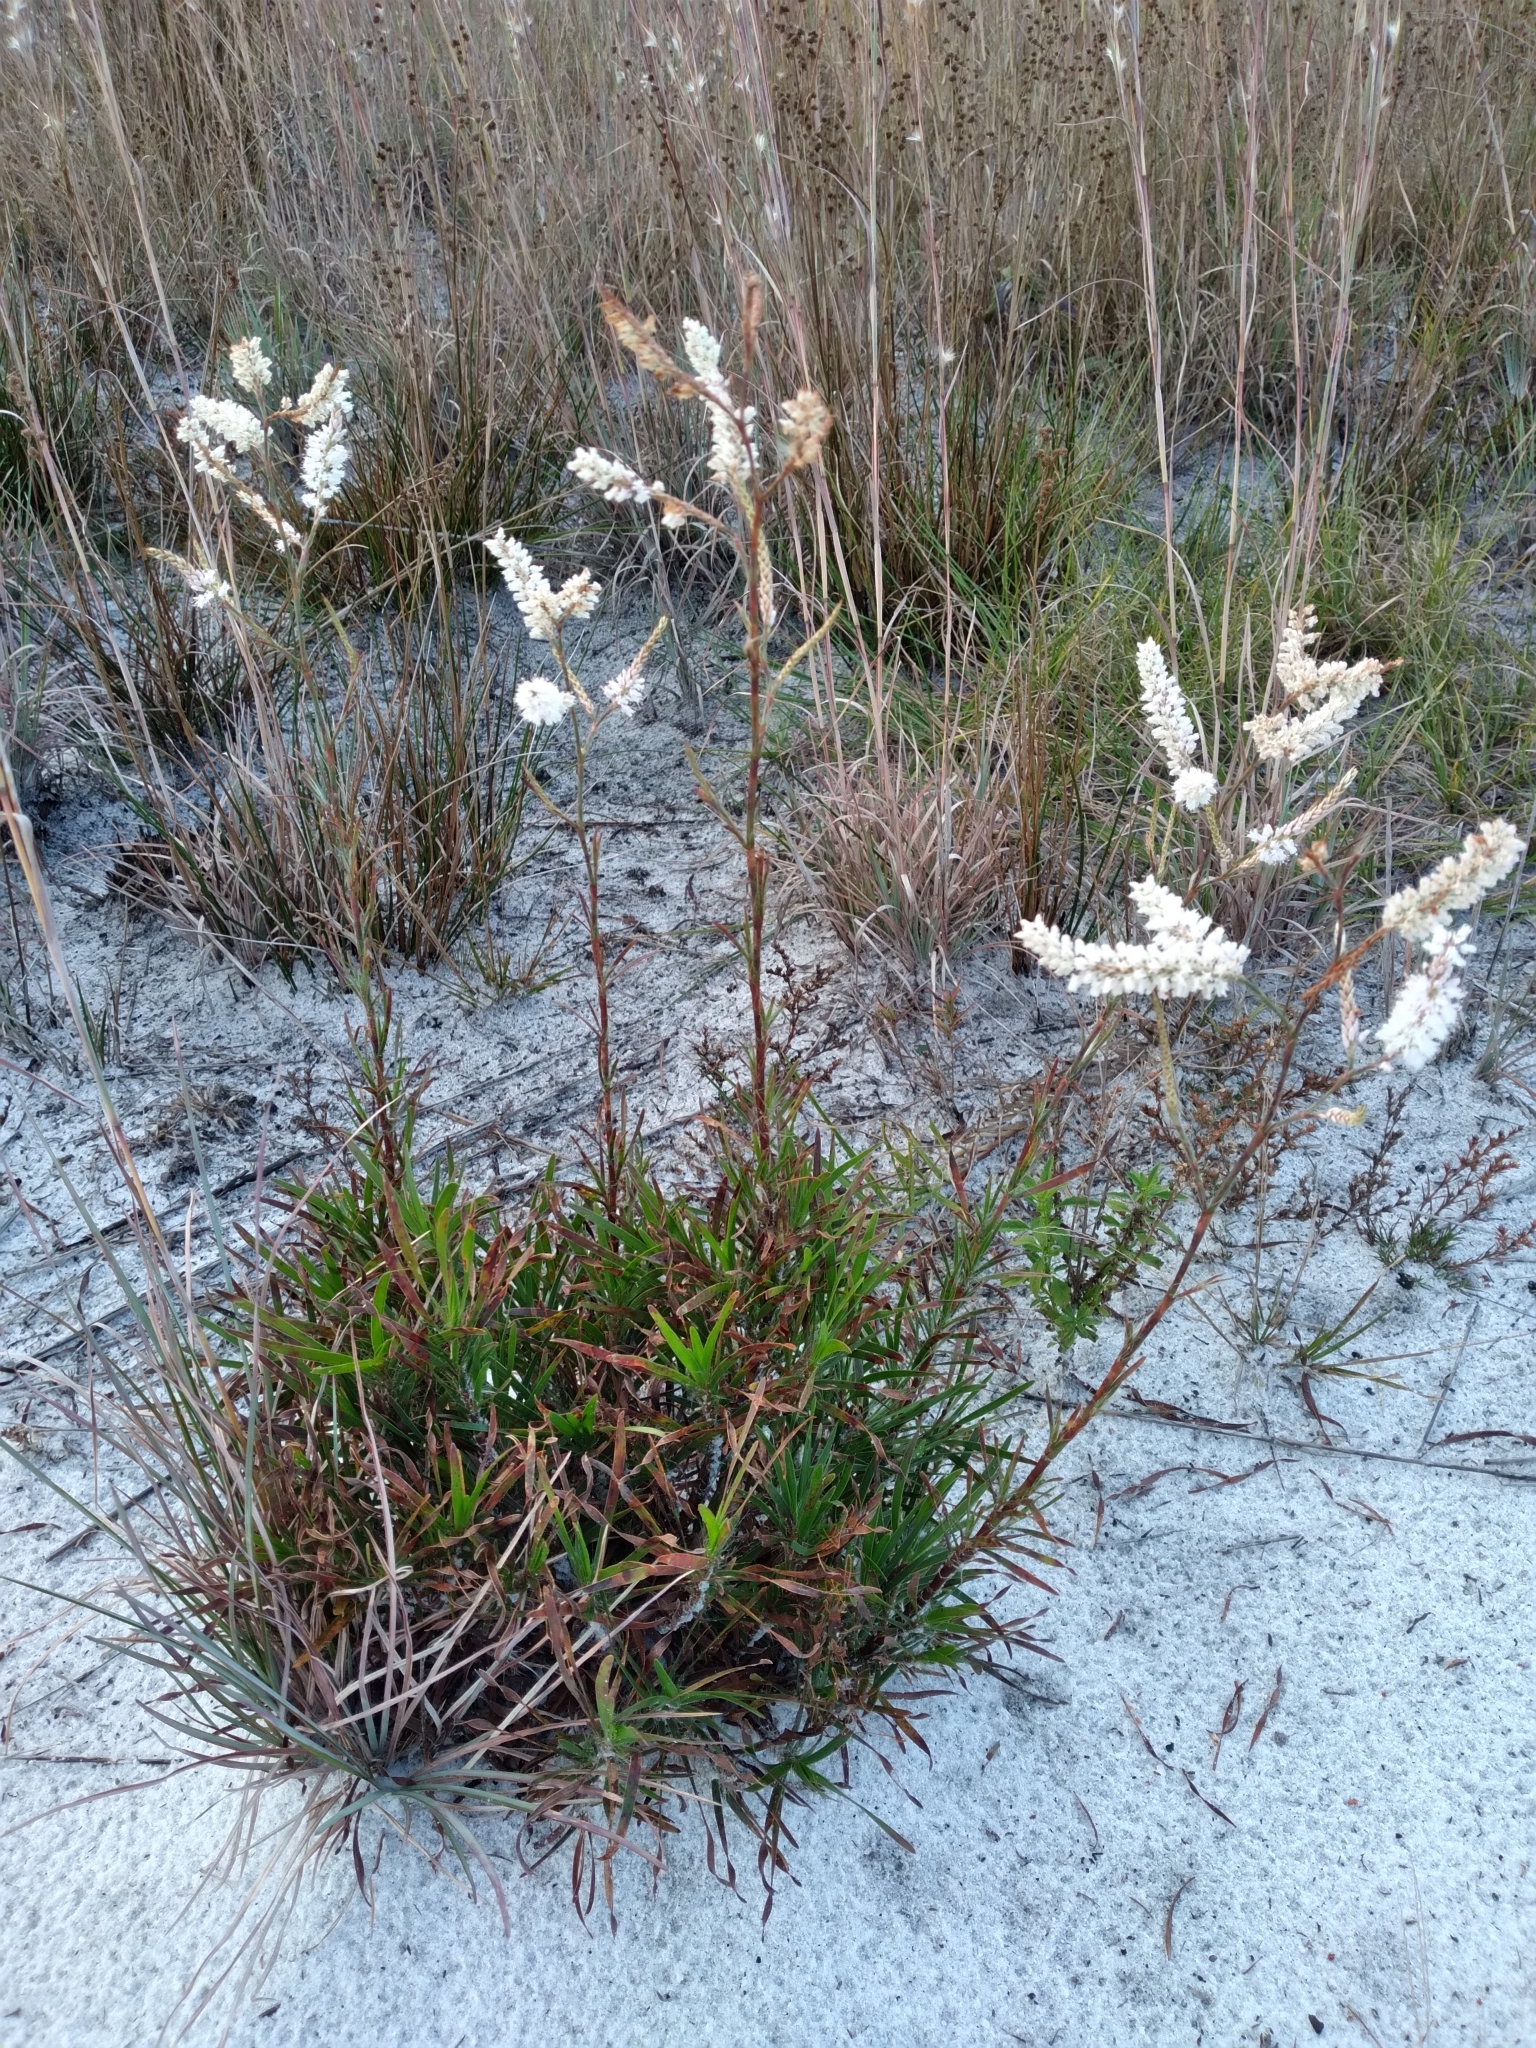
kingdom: Plantae
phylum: Tracheophyta
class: Magnoliopsida
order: Caryophyllales
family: Polygonaceae
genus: Polygonella
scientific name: Polygonella robusta
